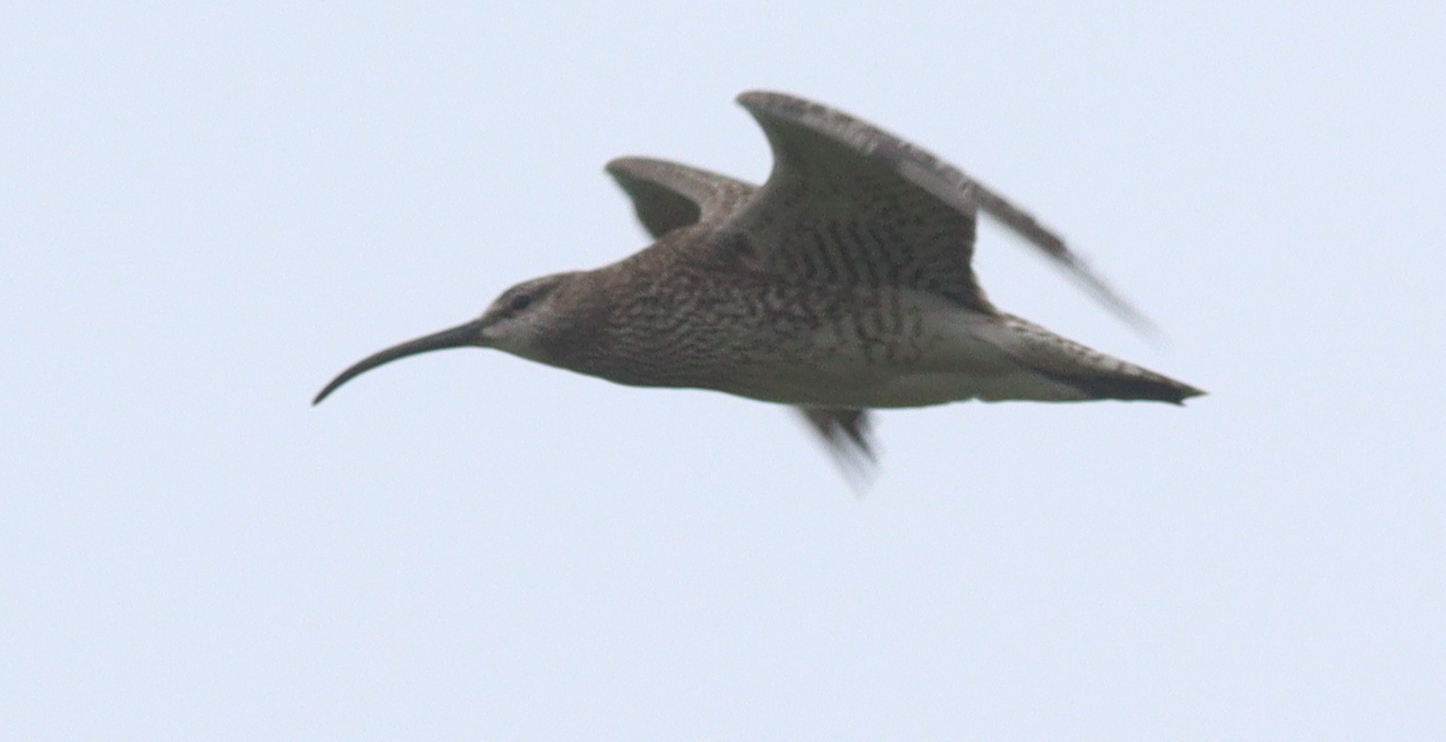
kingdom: Animalia
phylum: Chordata
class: Aves
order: Charadriiformes
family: Scolopacidae
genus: Numenius
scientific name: Numenius phaeopus
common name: Whimbrel
